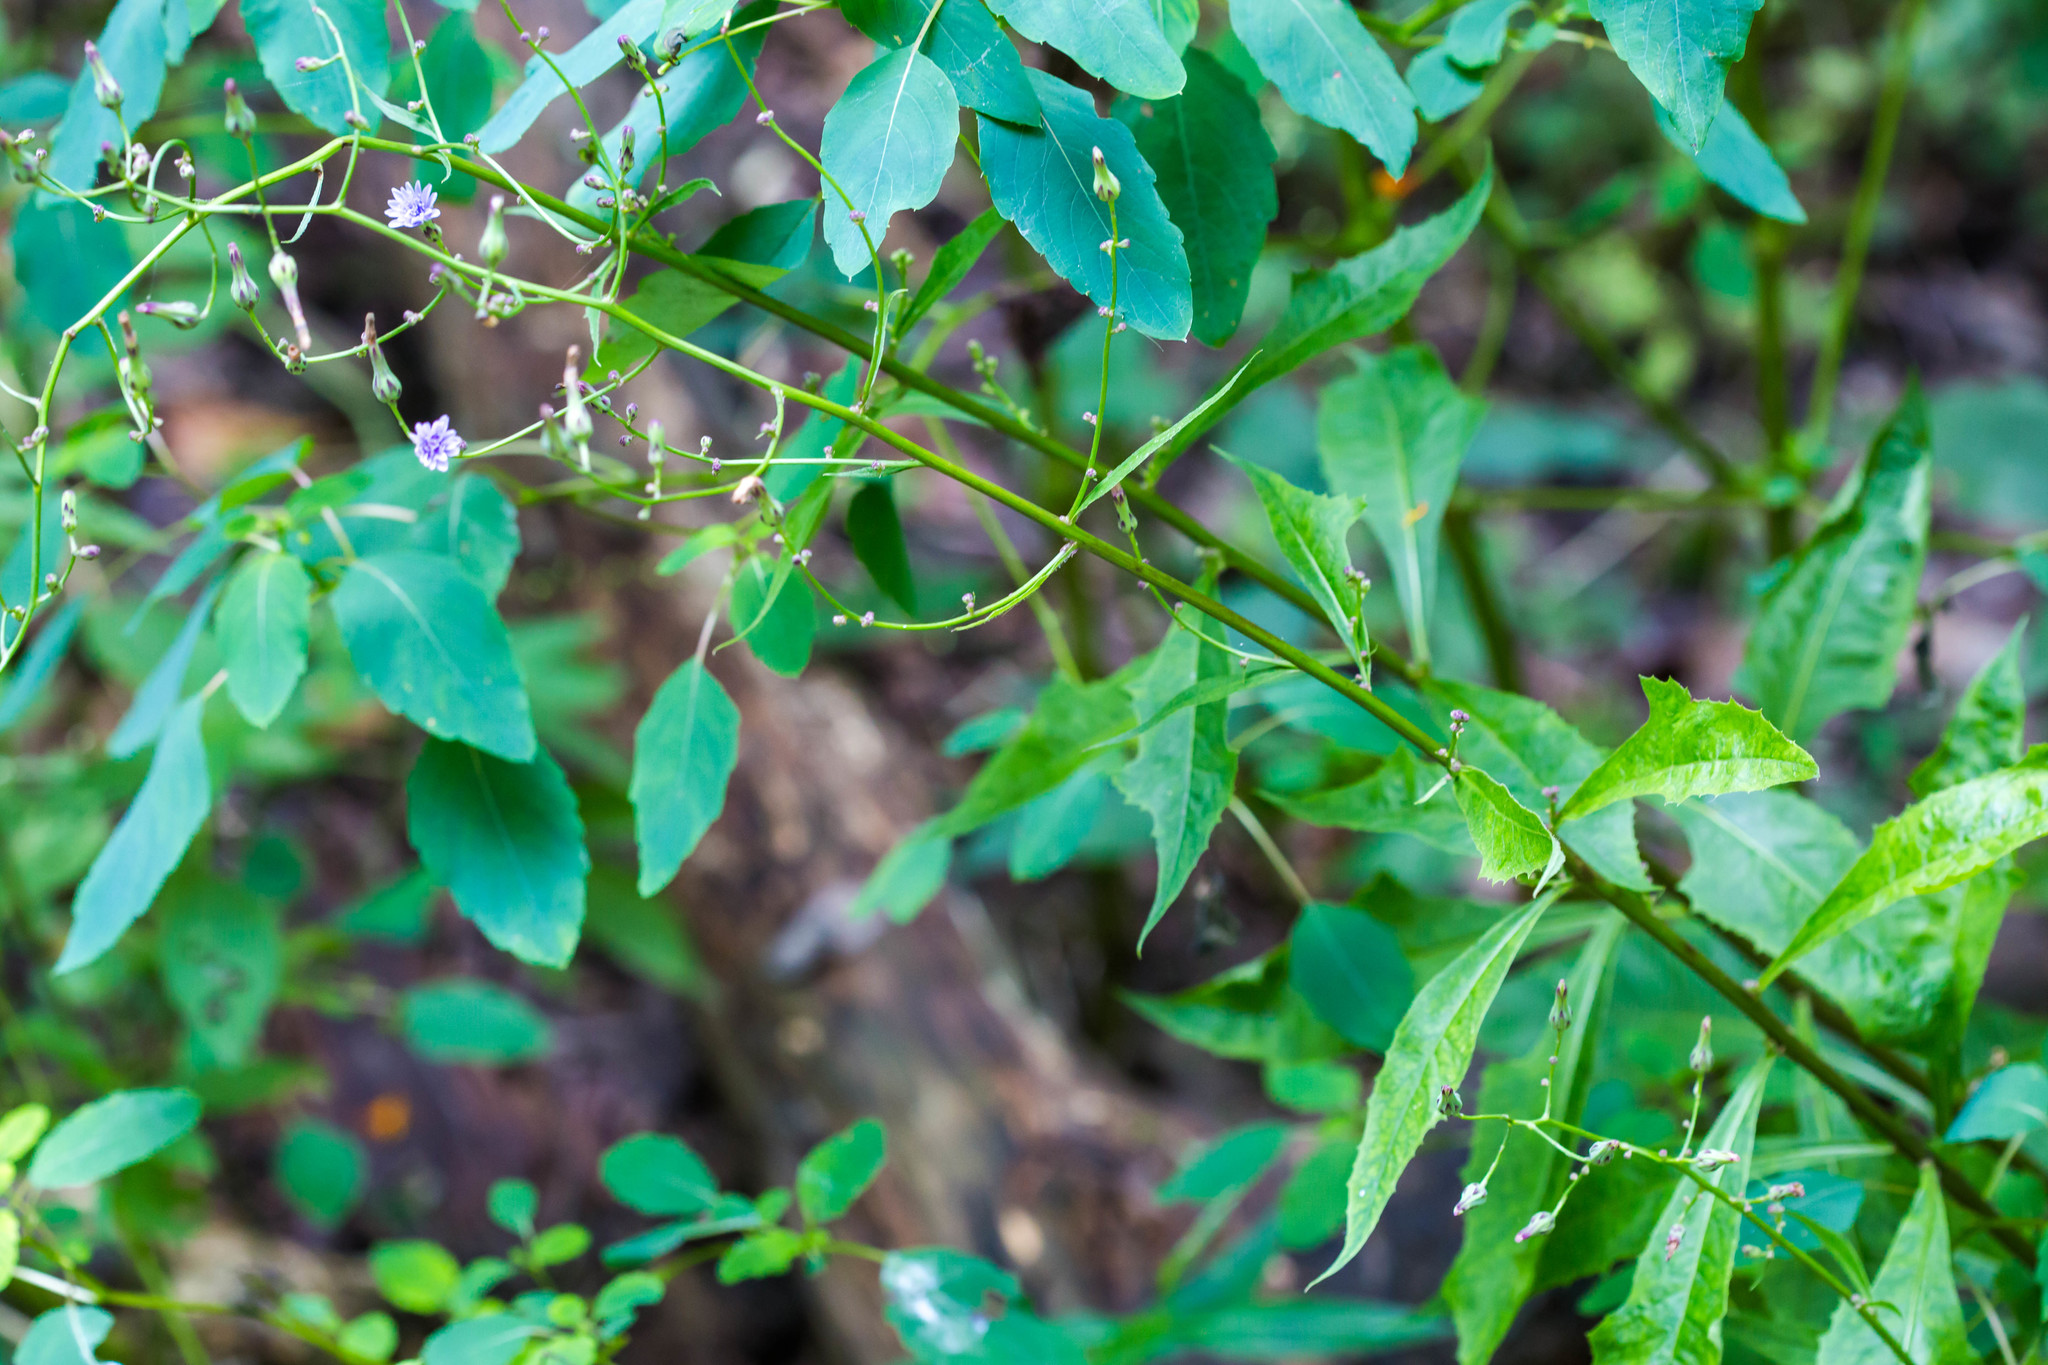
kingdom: Plantae
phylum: Tracheophyta
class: Magnoliopsida
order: Asterales
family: Asteraceae
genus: Lactuca
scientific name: Lactuca floridana
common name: Woodland lettuce
